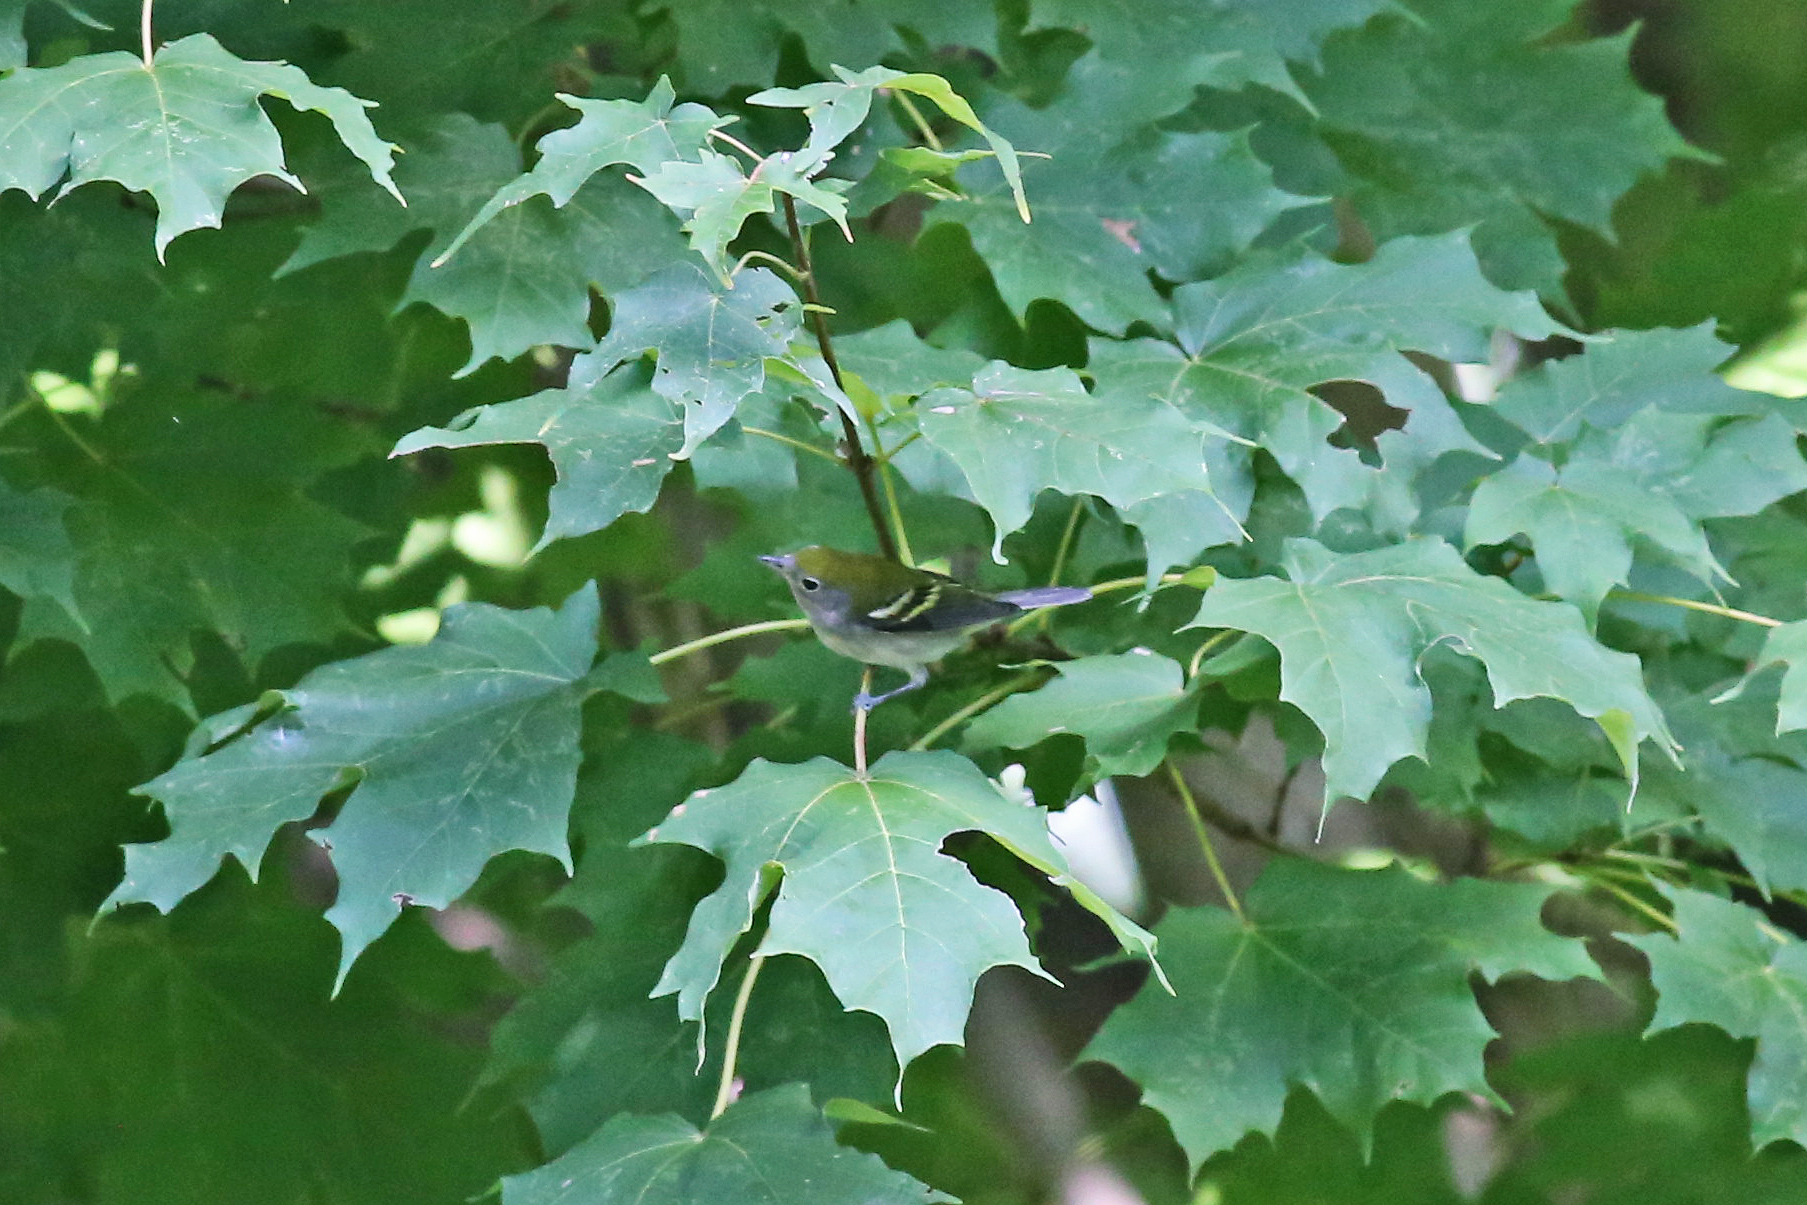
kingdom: Animalia
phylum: Chordata
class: Aves
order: Passeriformes
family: Parulidae
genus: Setophaga
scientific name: Setophaga pensylvanica
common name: Chestnut-sided warbler
